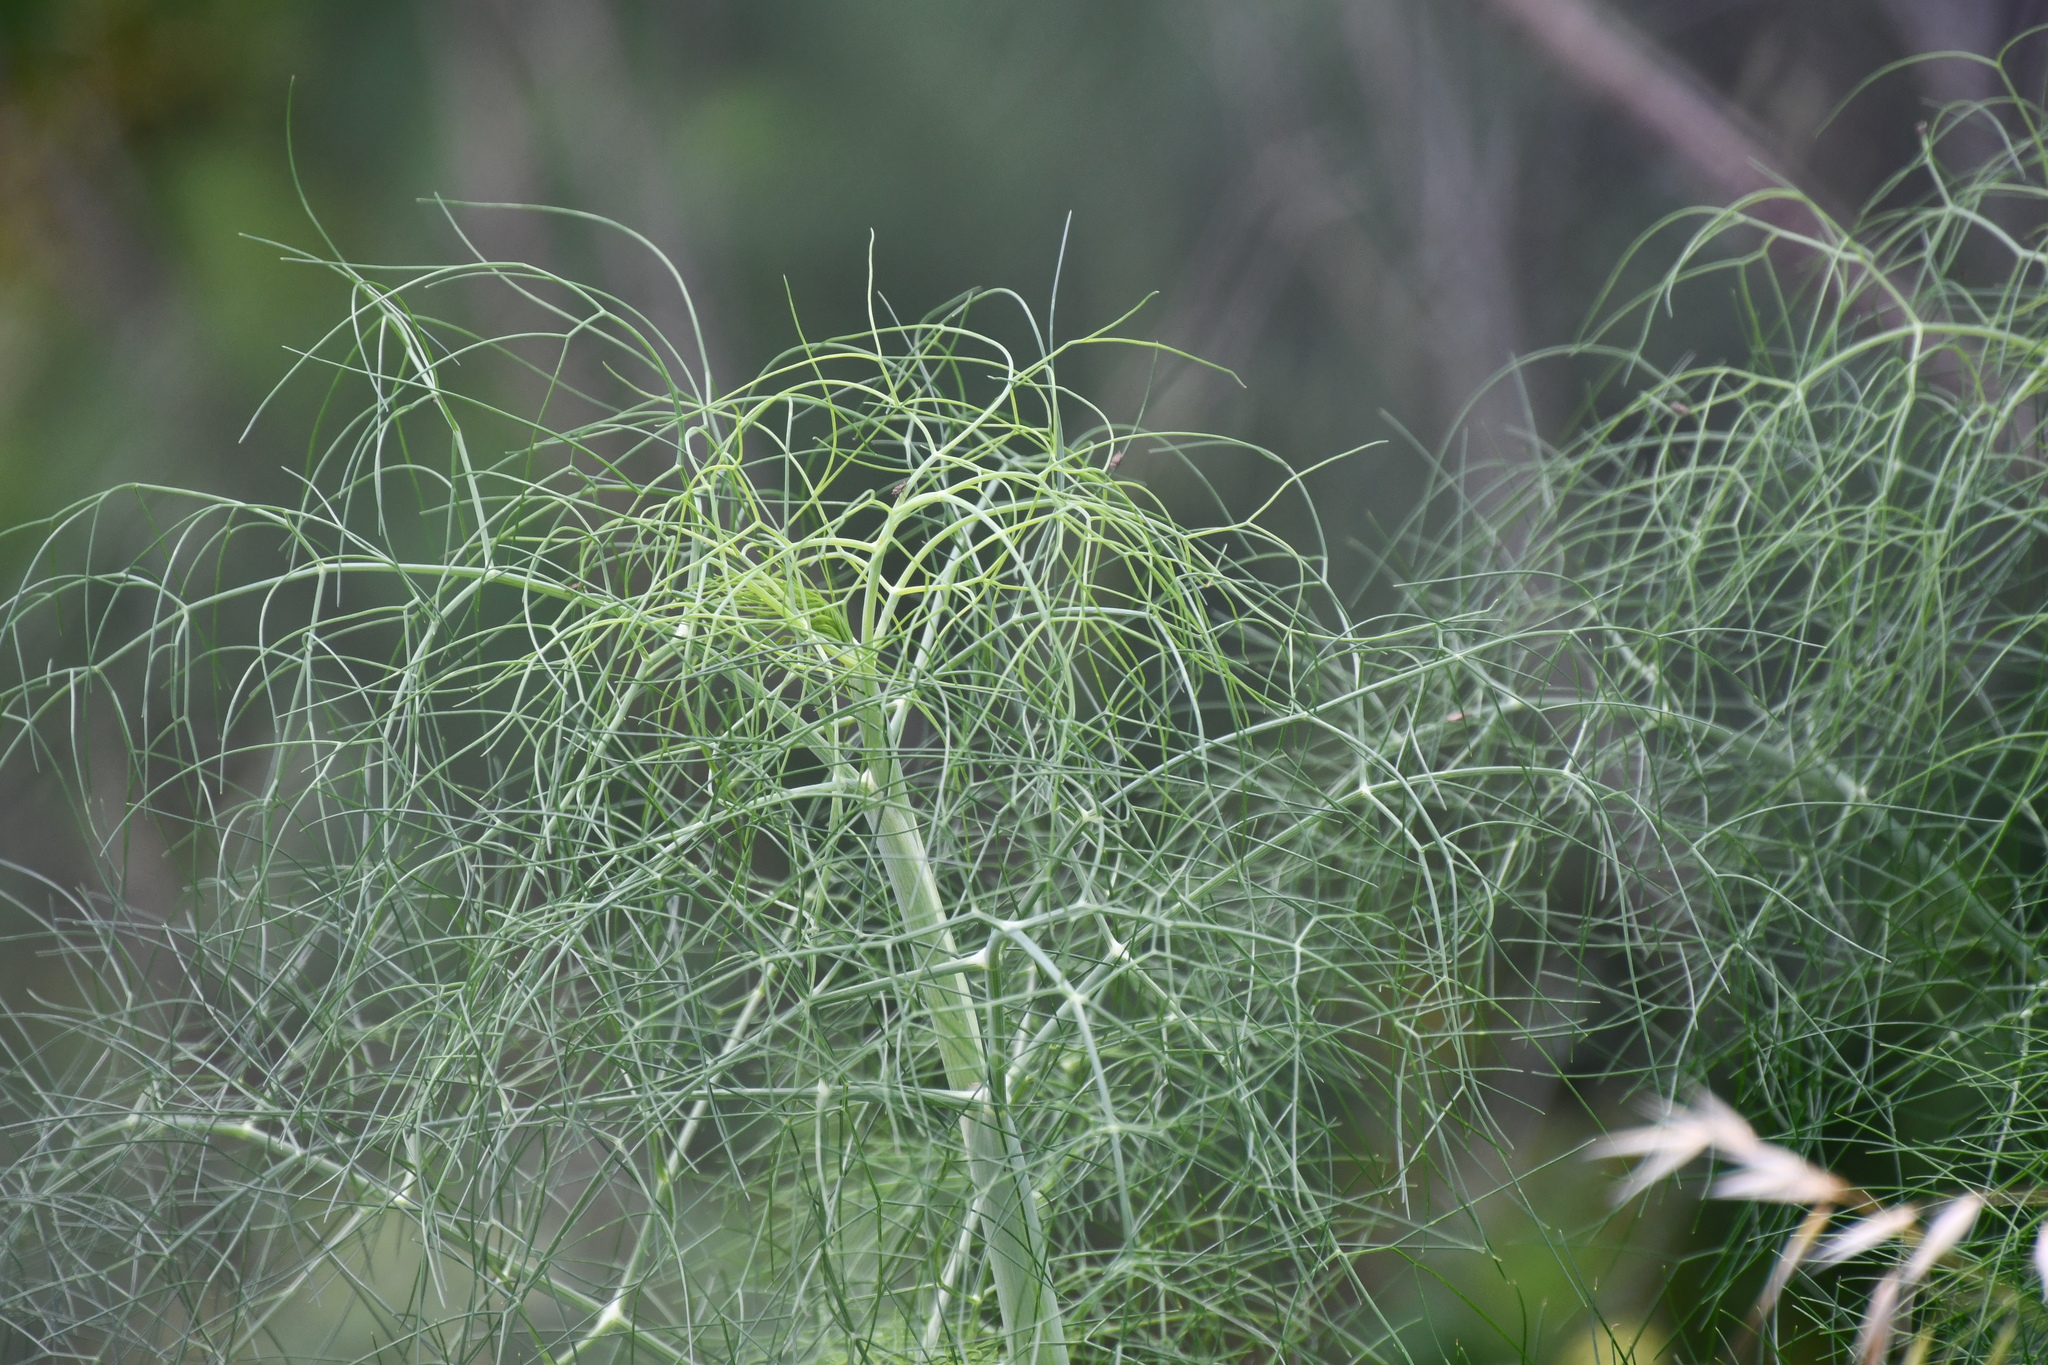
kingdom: Plantae
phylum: Tracheophyta
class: Magnoliopsida
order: Apiales
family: Apiaceae
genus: Foeniculum
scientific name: Foeniculum vulgare
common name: Fennel
